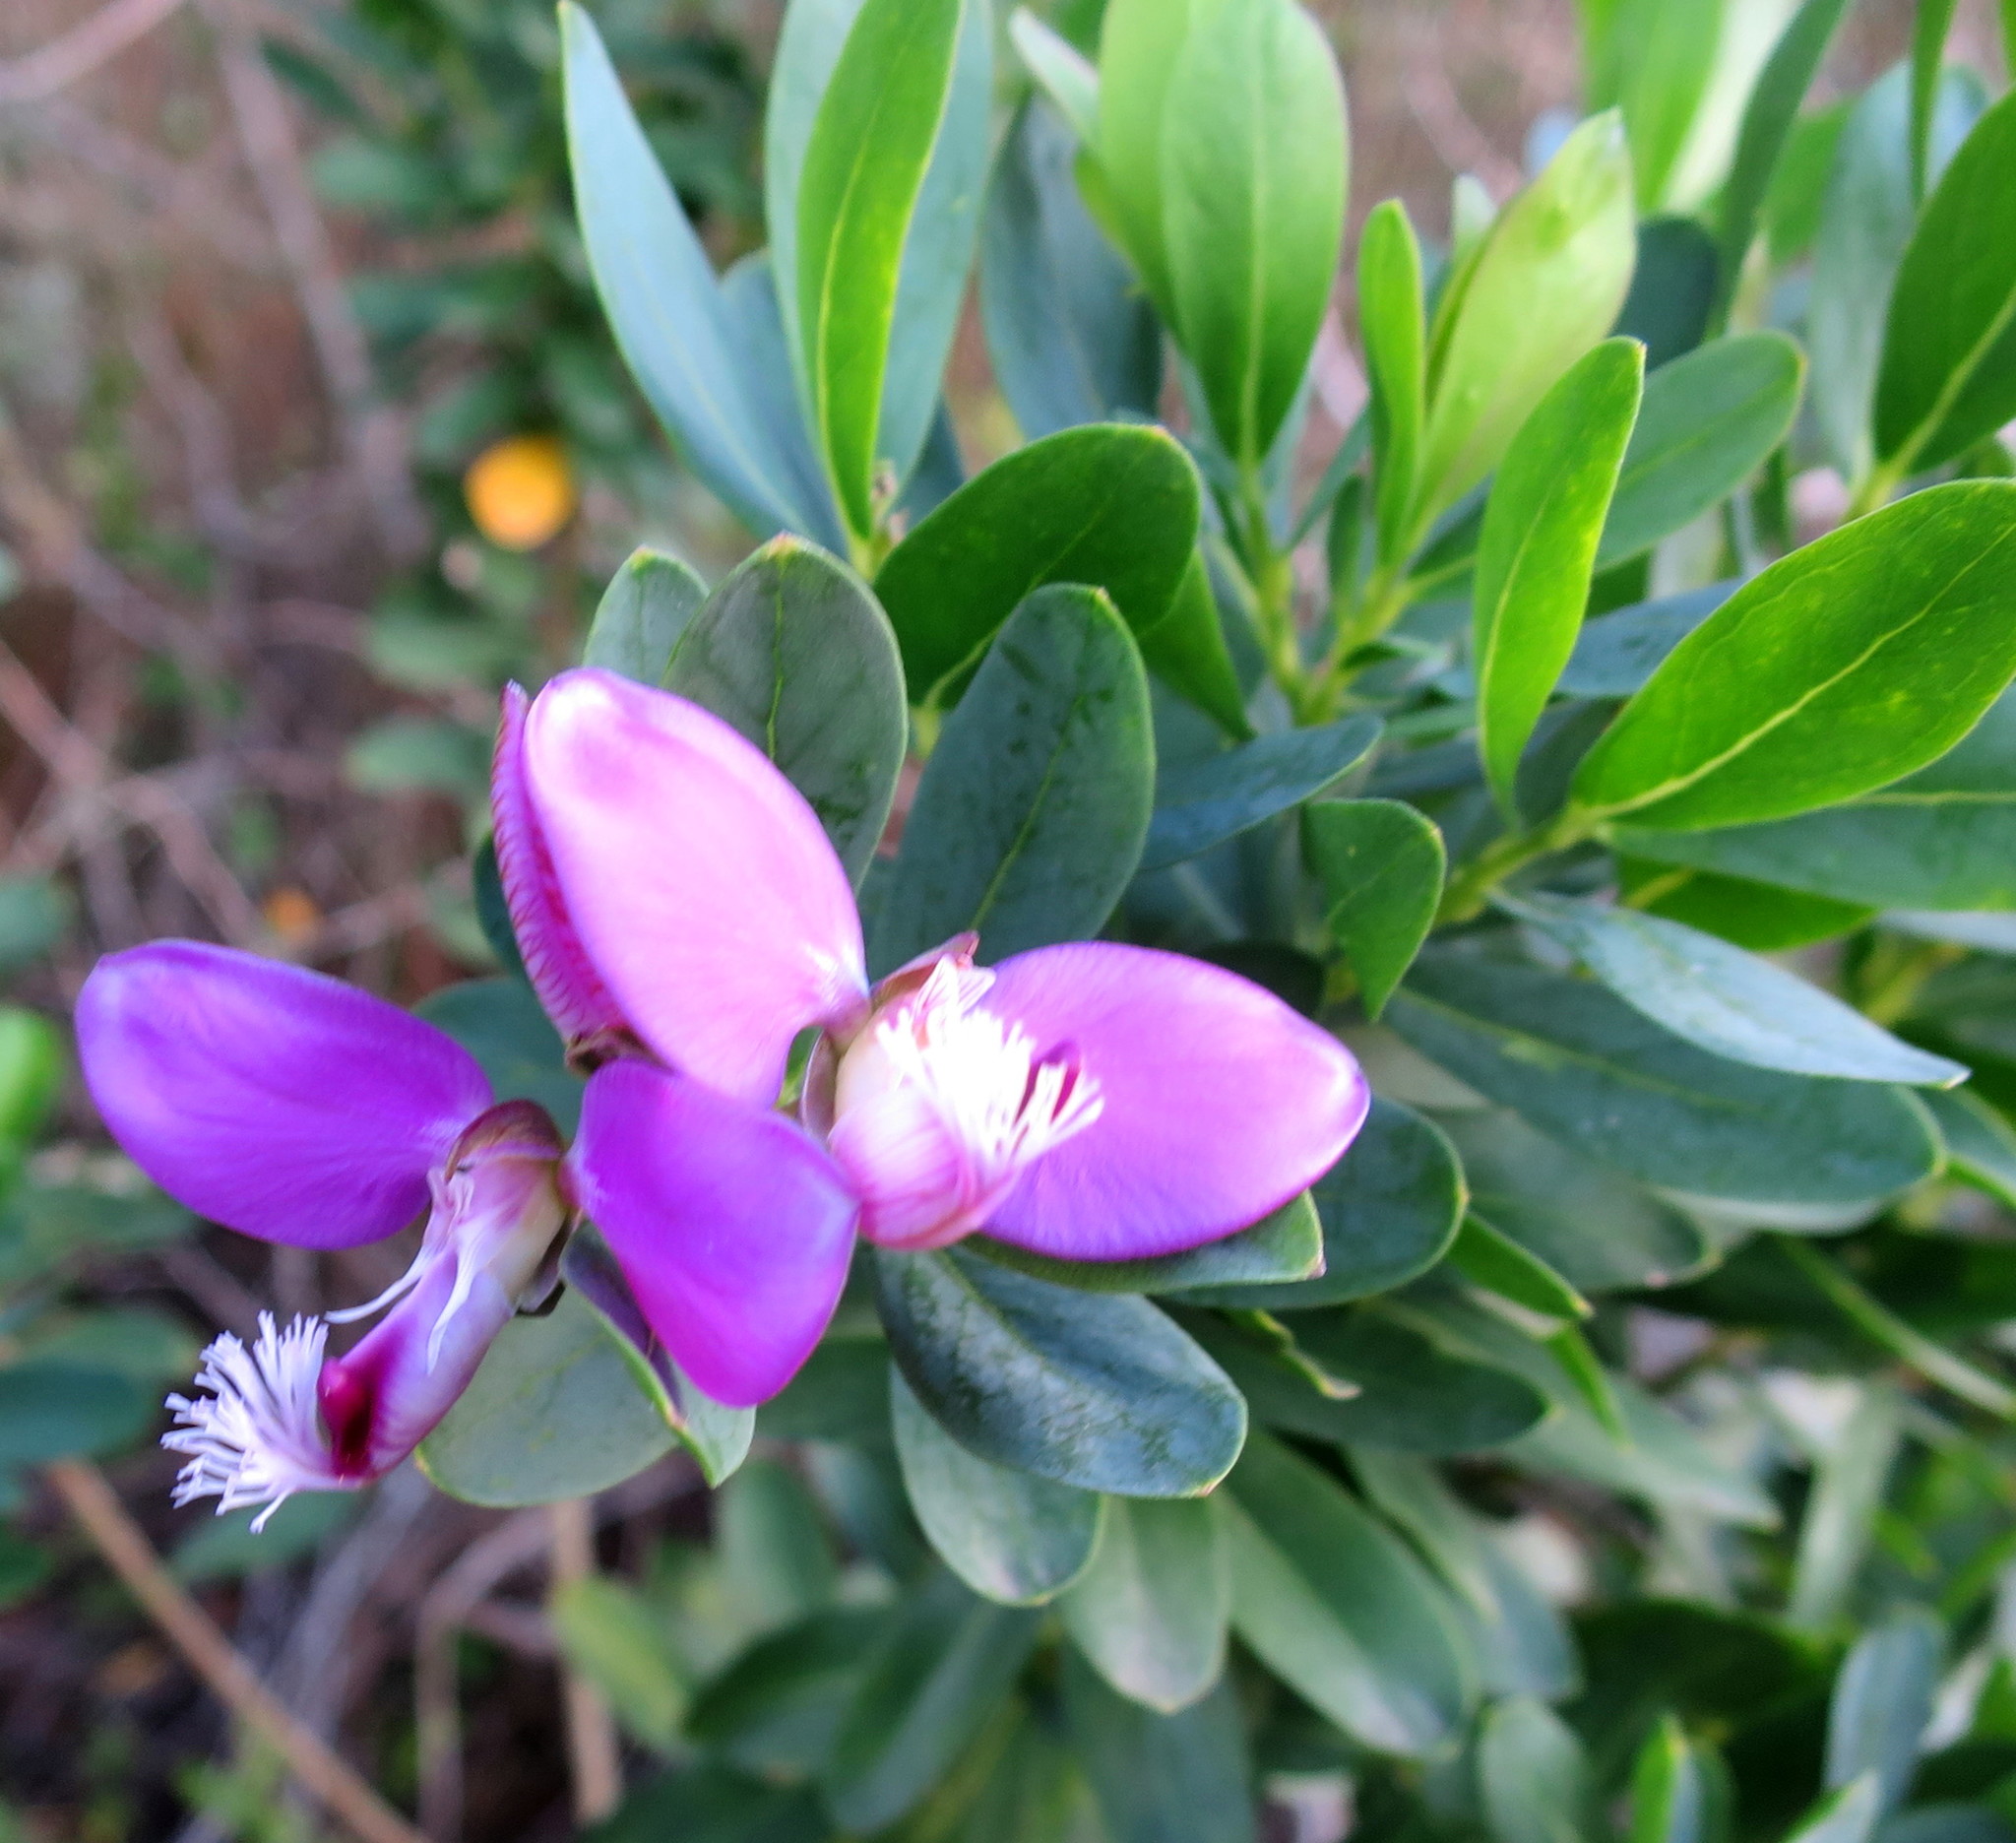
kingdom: Plantae
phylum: Tracheophyta
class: Magnoliopsida
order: Fabales
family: Polygalaceae
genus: Polygala
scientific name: Polygala myrtifolia
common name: Myrtle-leaf milkwort
